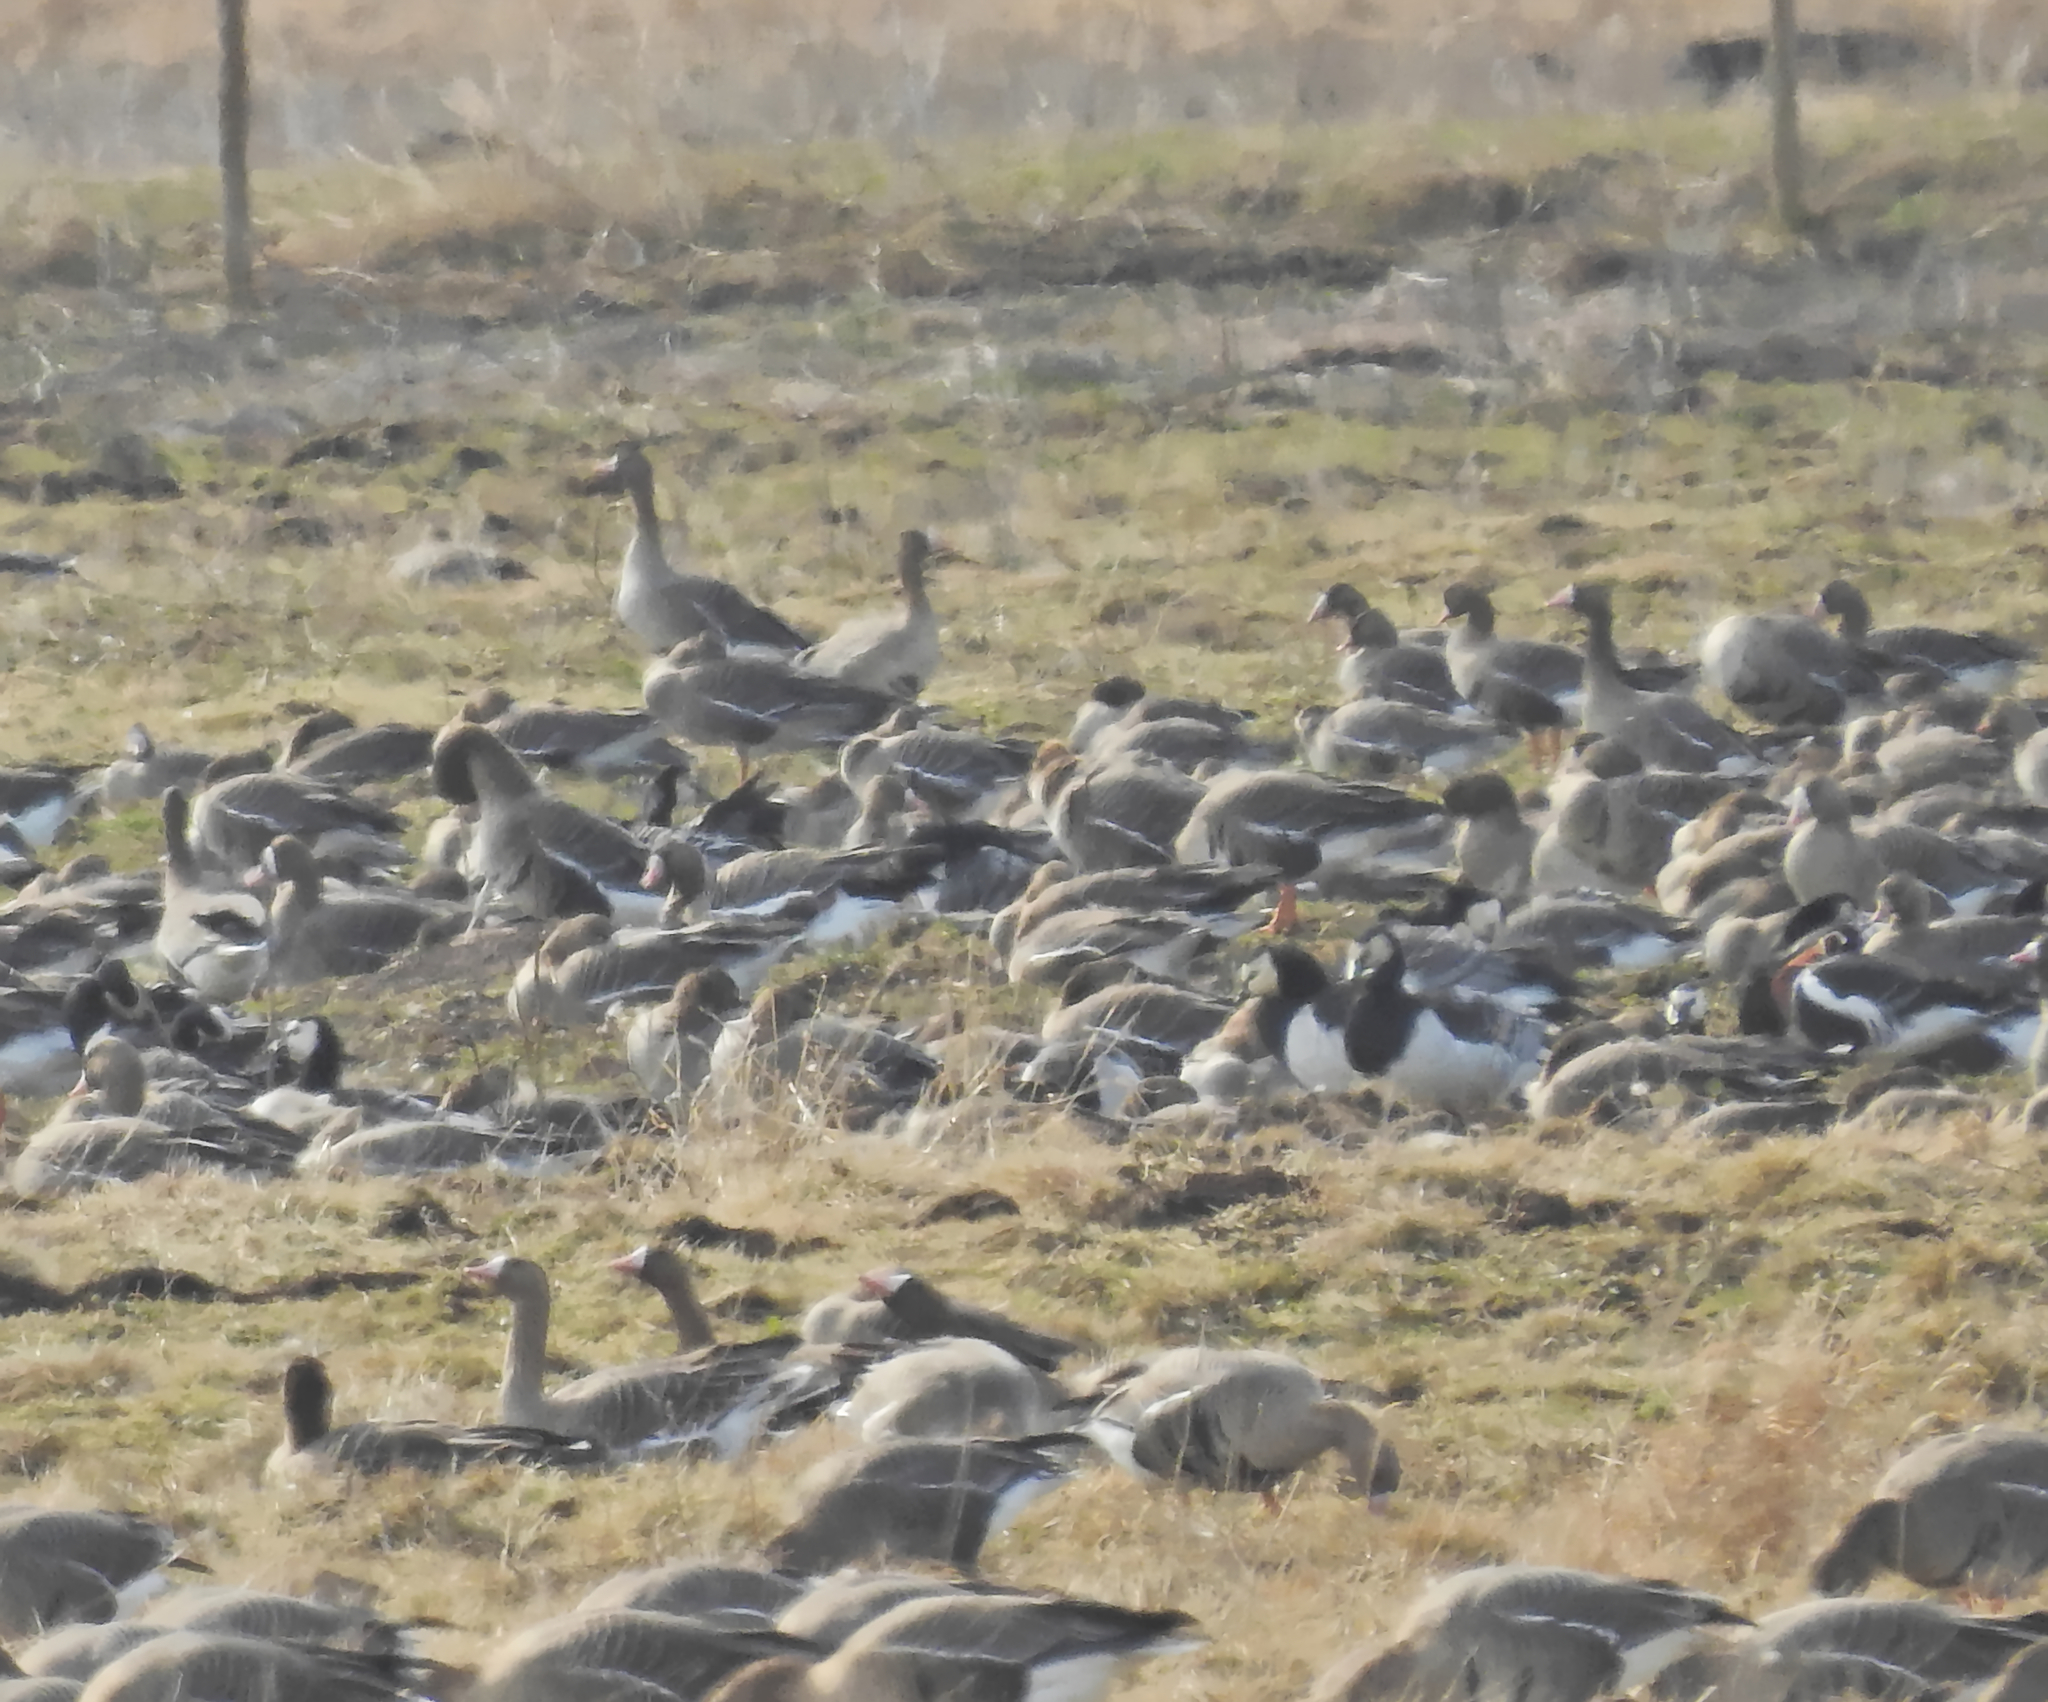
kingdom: Animalia
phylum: Chordata
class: Aves
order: Anseriformes
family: Anatidae
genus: Branta
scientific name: Branta leucopsis
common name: Barnacle goose
